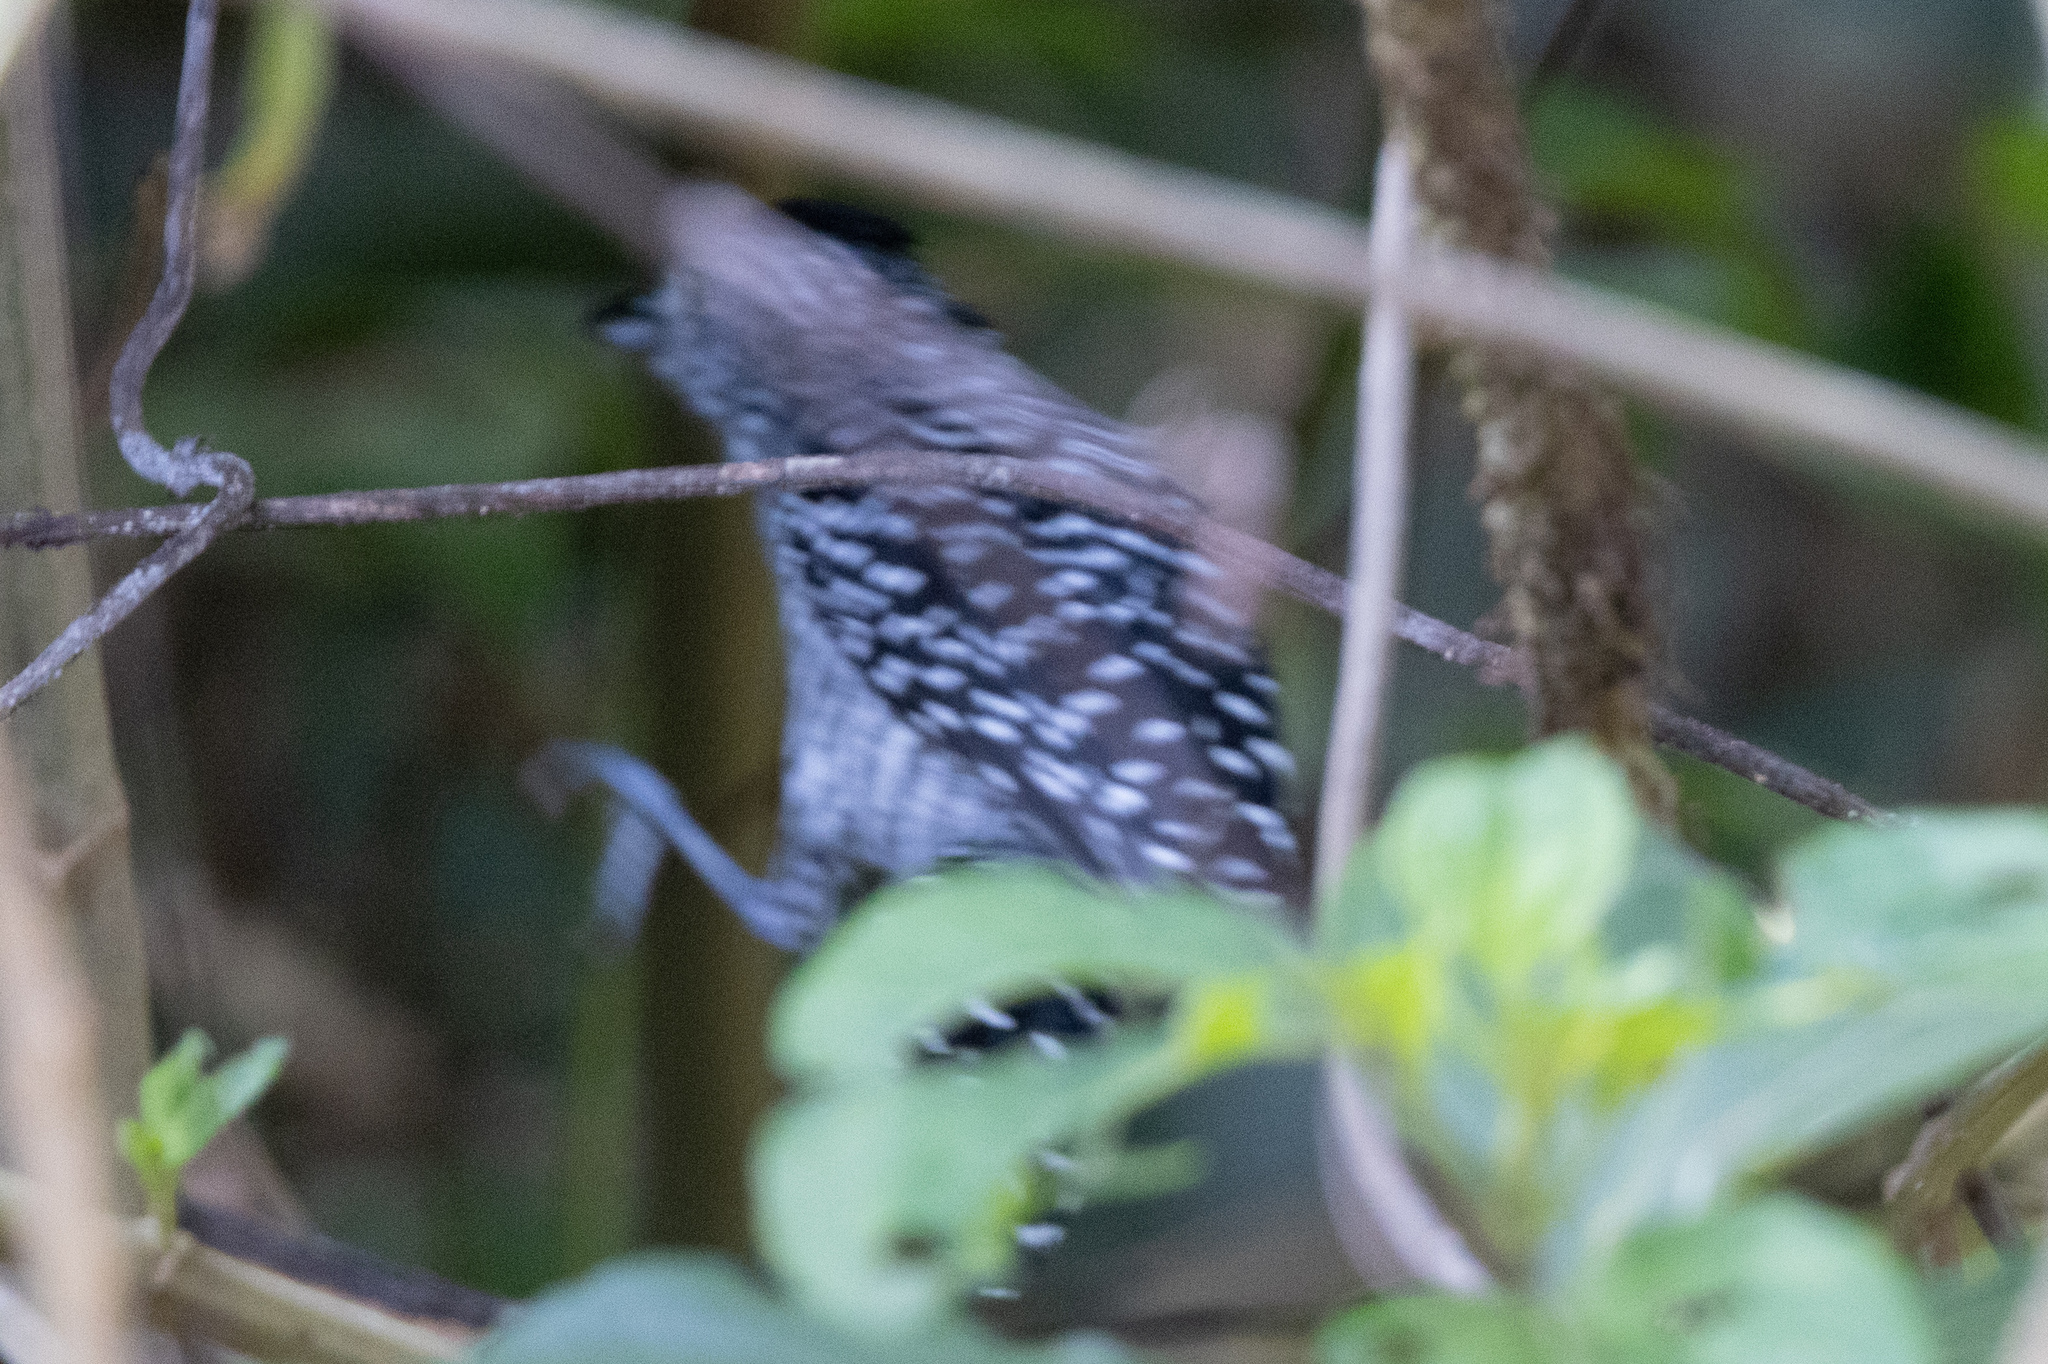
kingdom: Animalia
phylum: Chordata
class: Aves
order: Passeriformes
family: Thamnophilidae
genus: Thamnophilus
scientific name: Thamnophilus doliatus
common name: Barred antshrike
